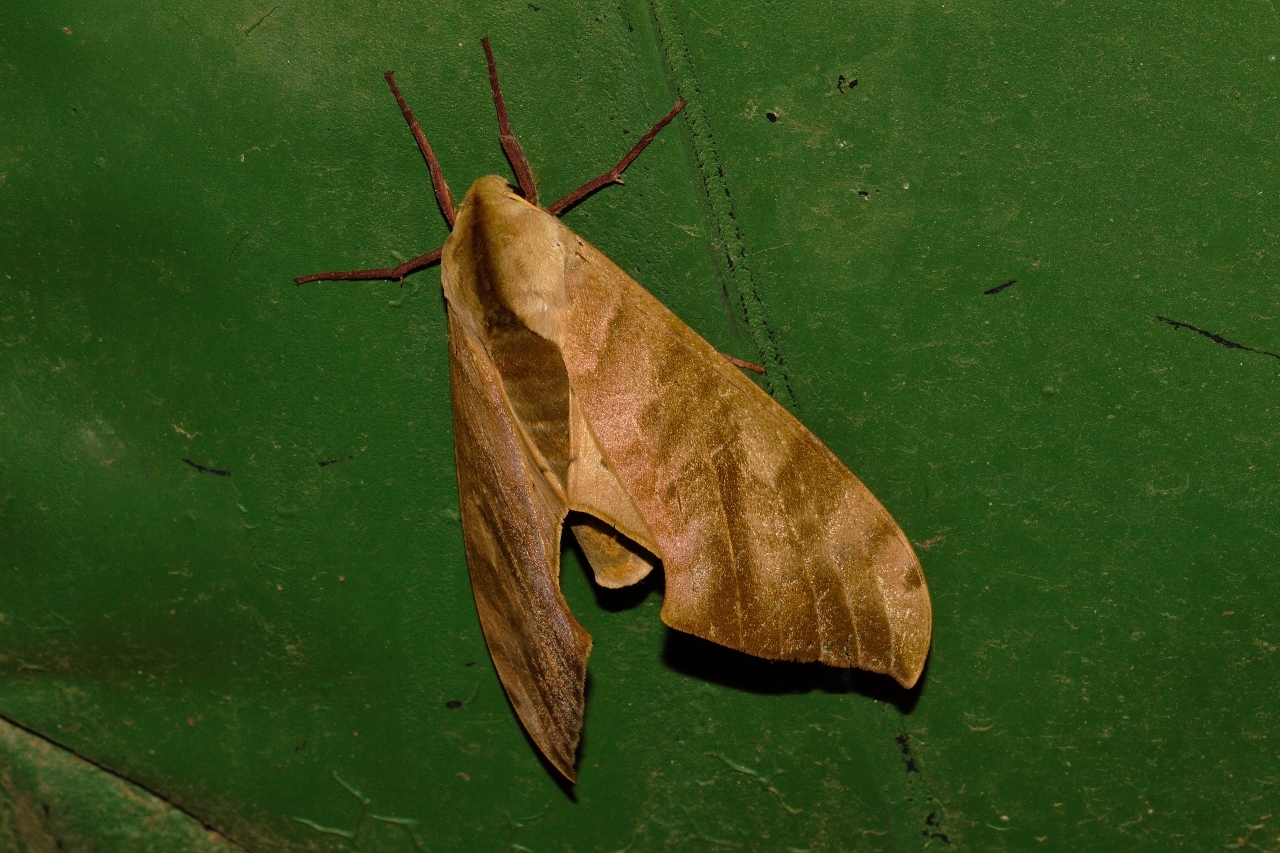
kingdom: Animalia
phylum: Arthropoda
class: Insecta
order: Lepidoptera
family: Sphingidae
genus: Pseudoclanis
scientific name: Pseudoclanis postica
